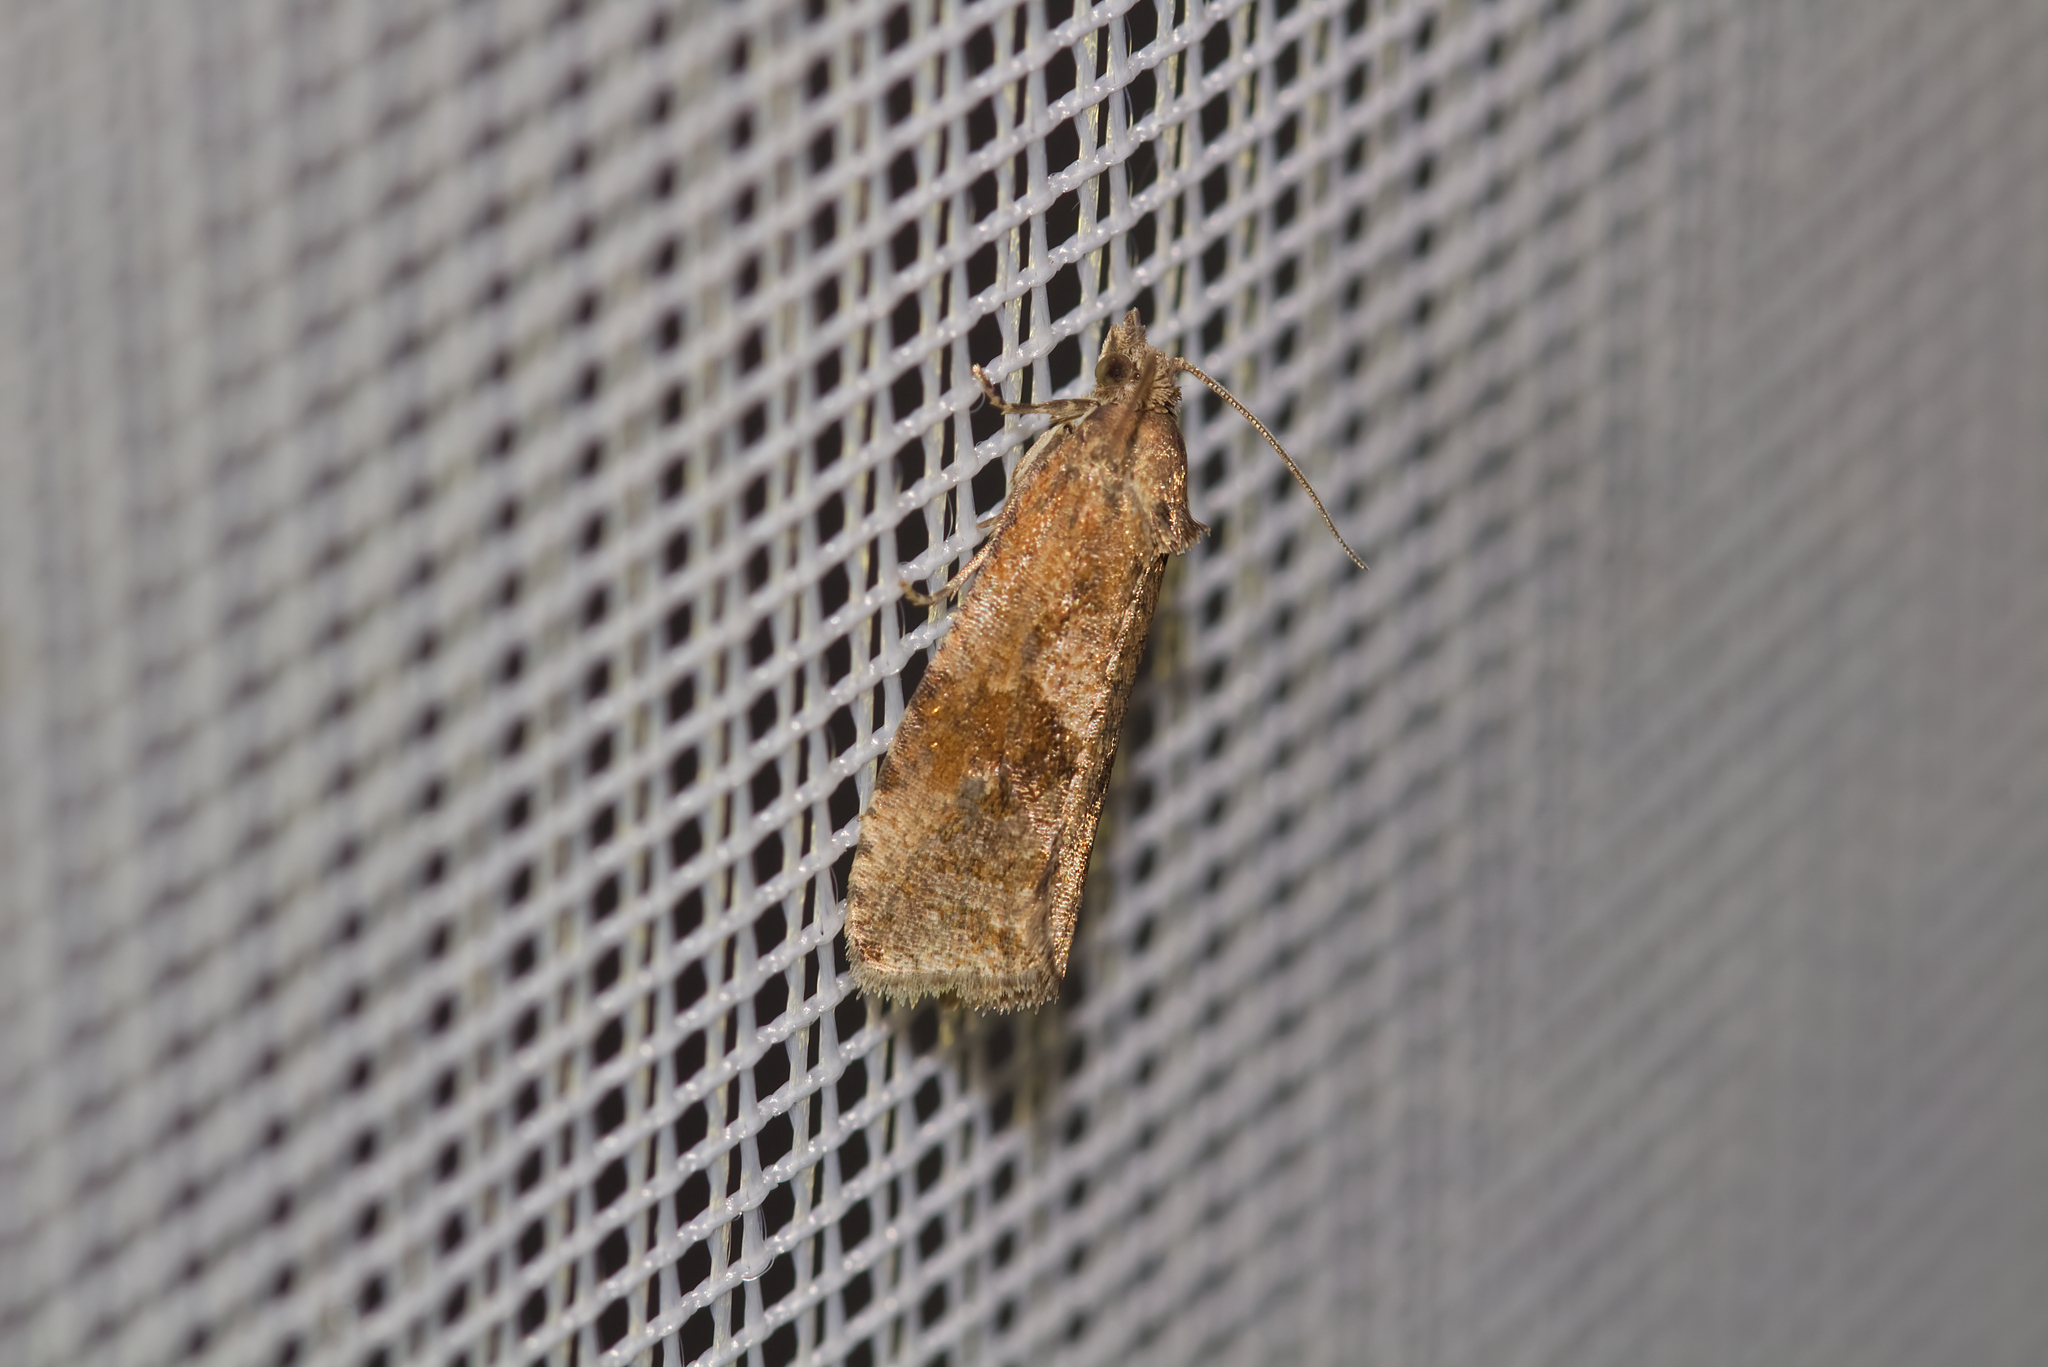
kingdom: Animalia
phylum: Arthropoda
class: Insecta
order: Lepidoptera
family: Tortricidae
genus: Celypha
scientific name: Celypha striana
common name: Barred marble
